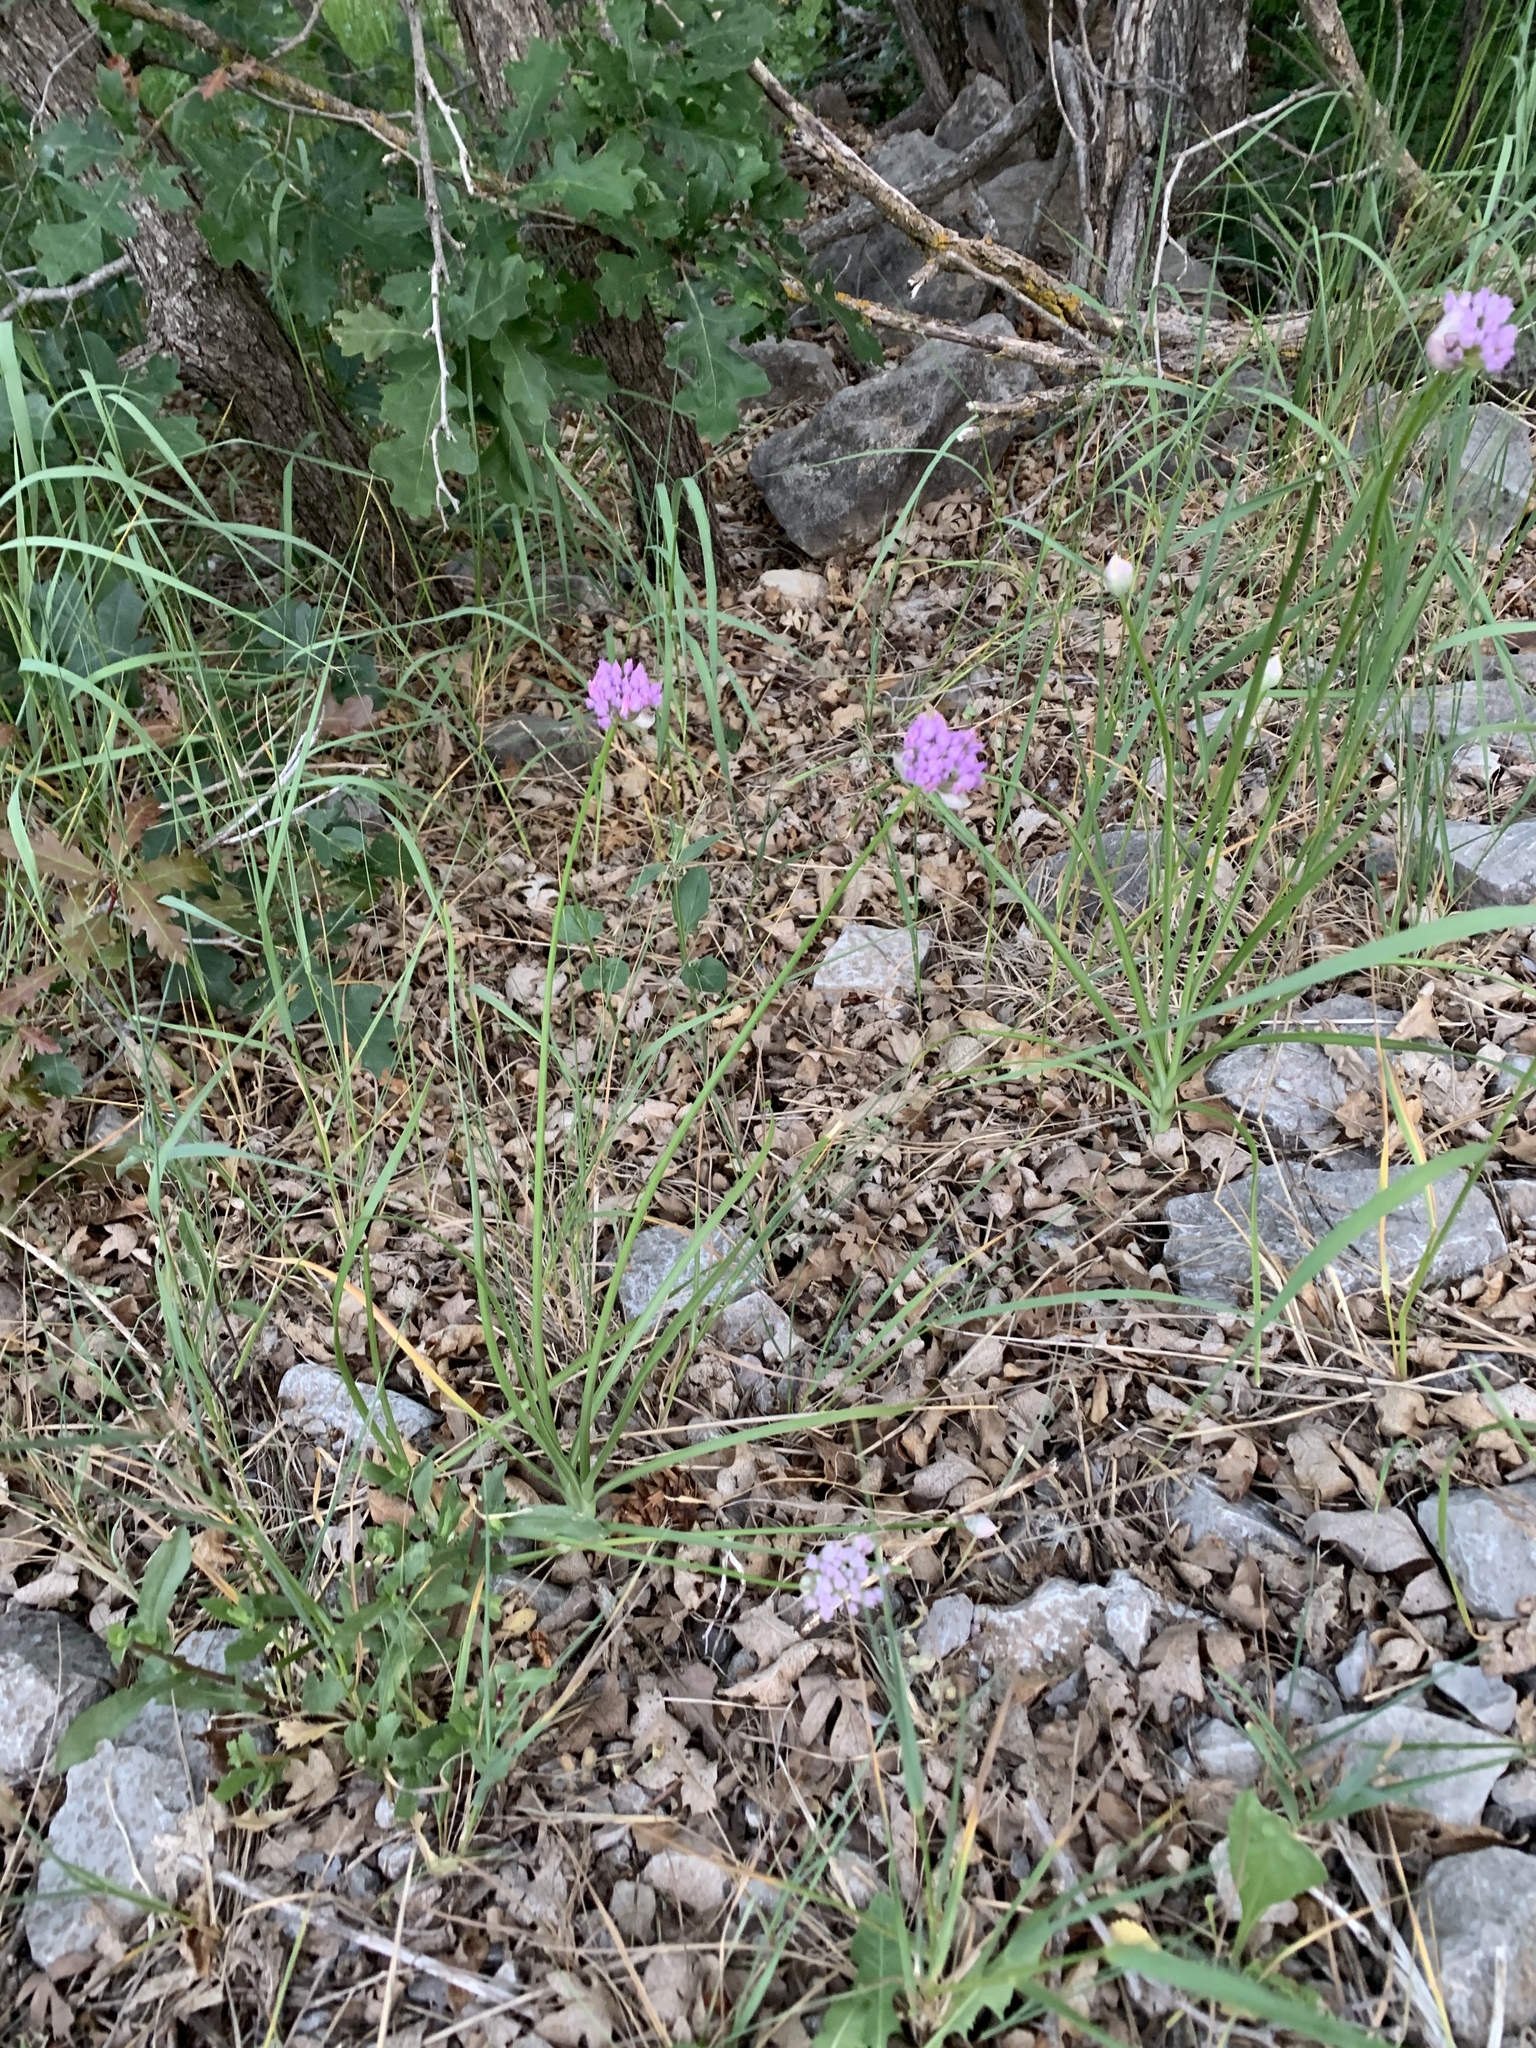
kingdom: Plantae
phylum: Tracheophyta
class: Liliopsida
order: Asparagales
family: Amaryllidaceae
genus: Allium
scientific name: Allium geyeri
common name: Geyer's onion
